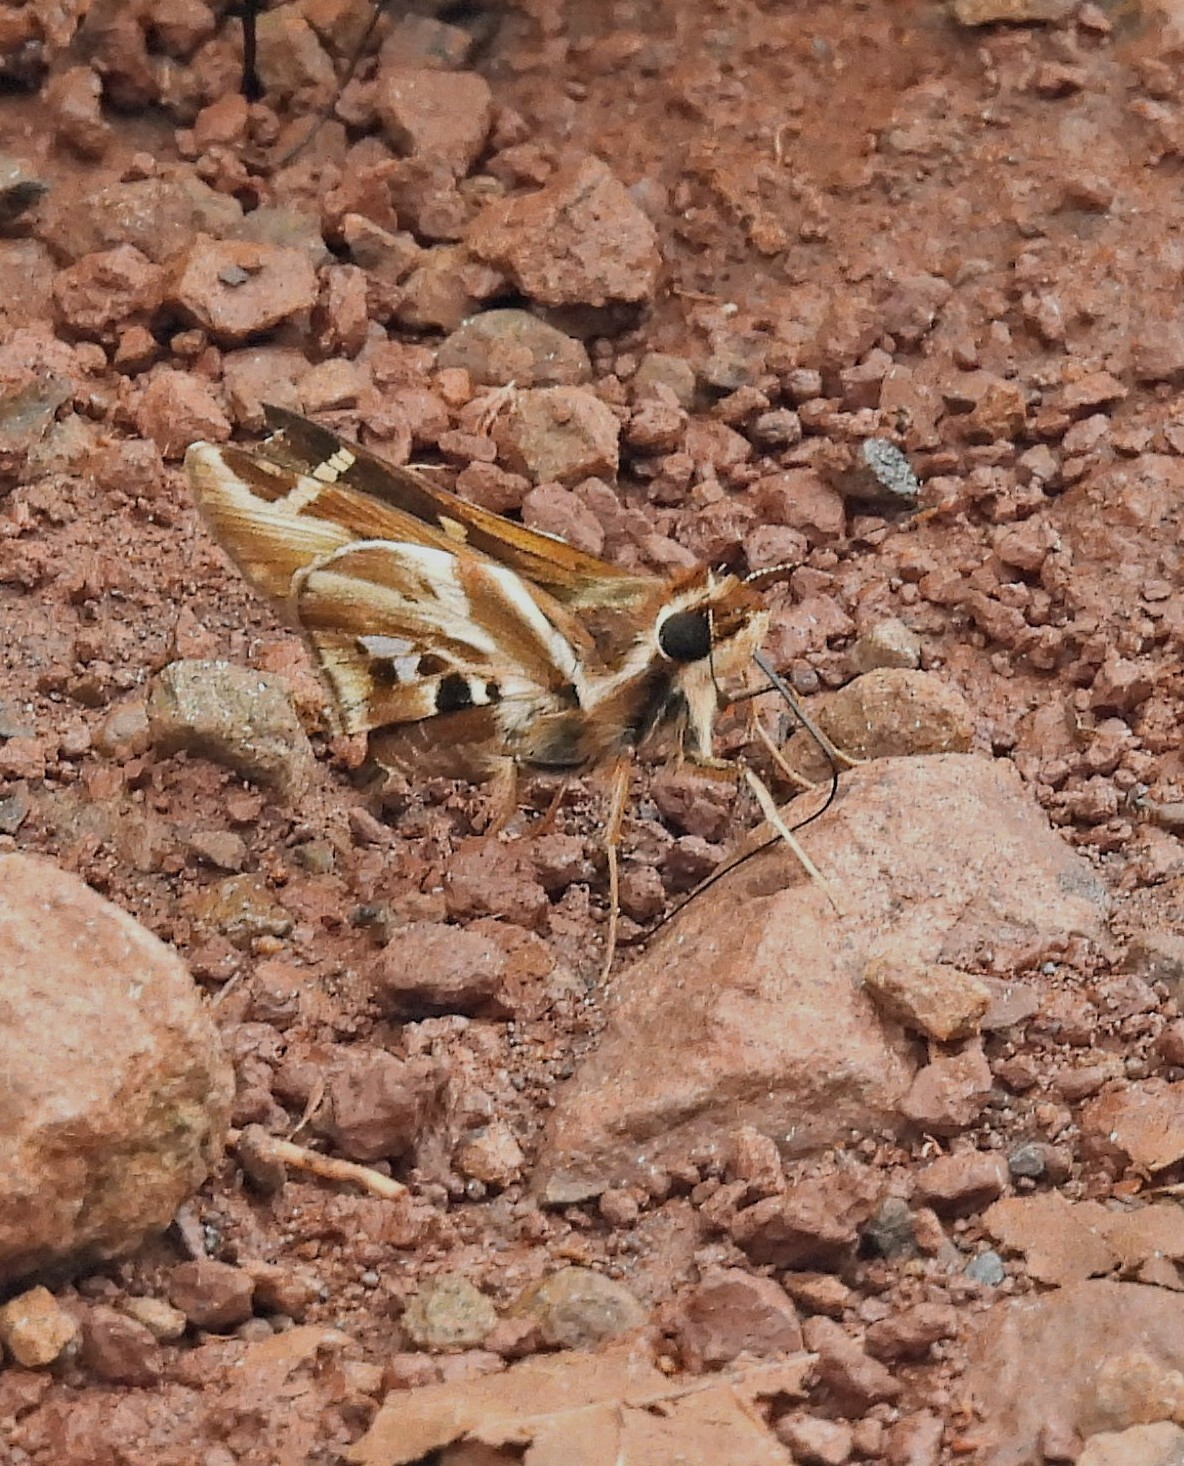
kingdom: Animalia
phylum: Arthropoda
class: Insecta
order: Lepidoptera
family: Hesperiidae
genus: Thespieus
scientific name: Thespieus ethemides
